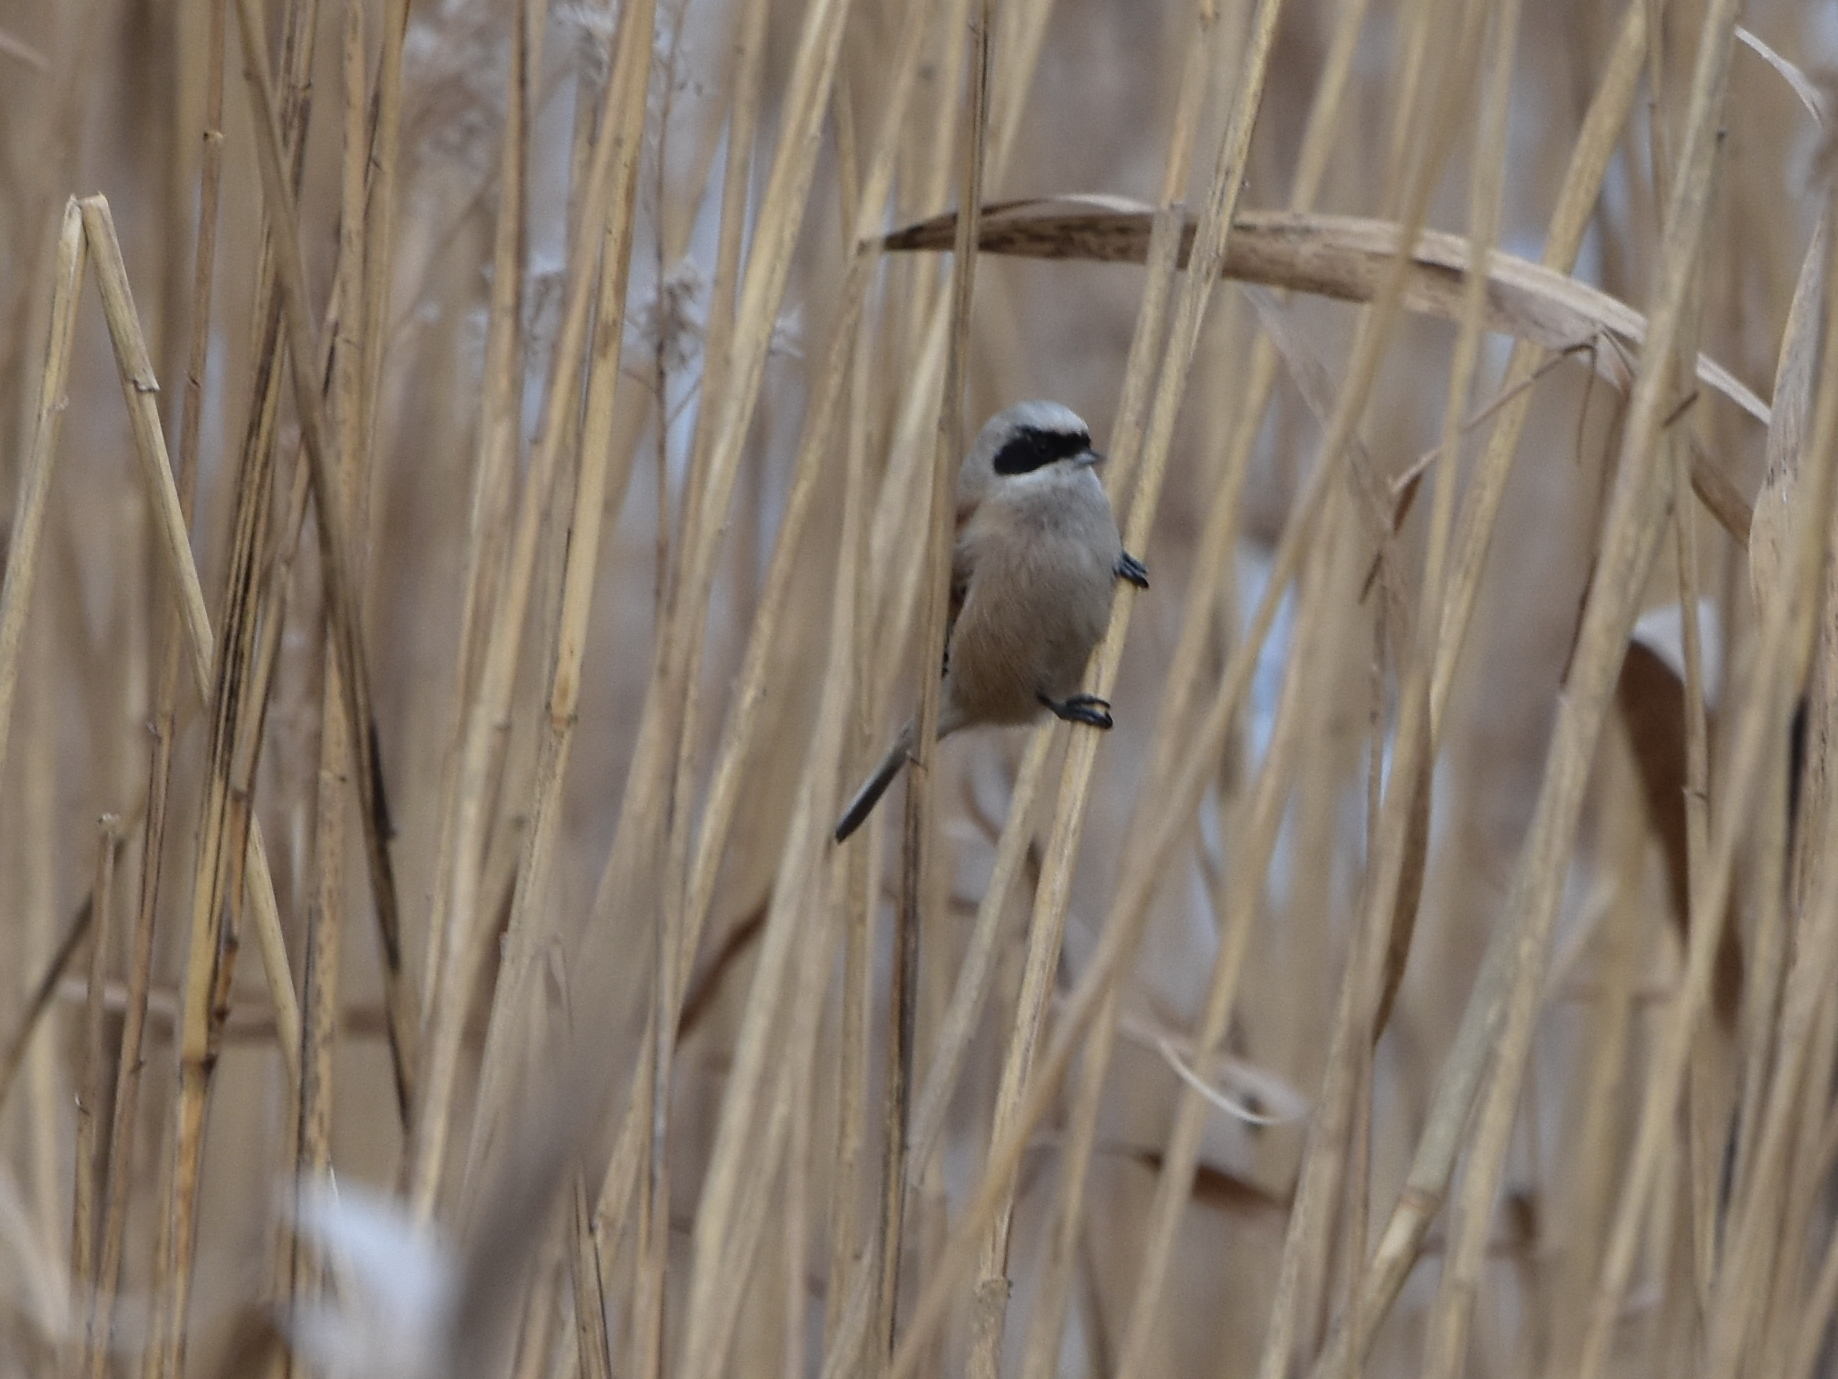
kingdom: Animalia
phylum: Chordata
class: Aves
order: Passeriformes
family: Remizidae
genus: Remiz
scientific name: Remiz pendulinus
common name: Eurasian penduline tit
